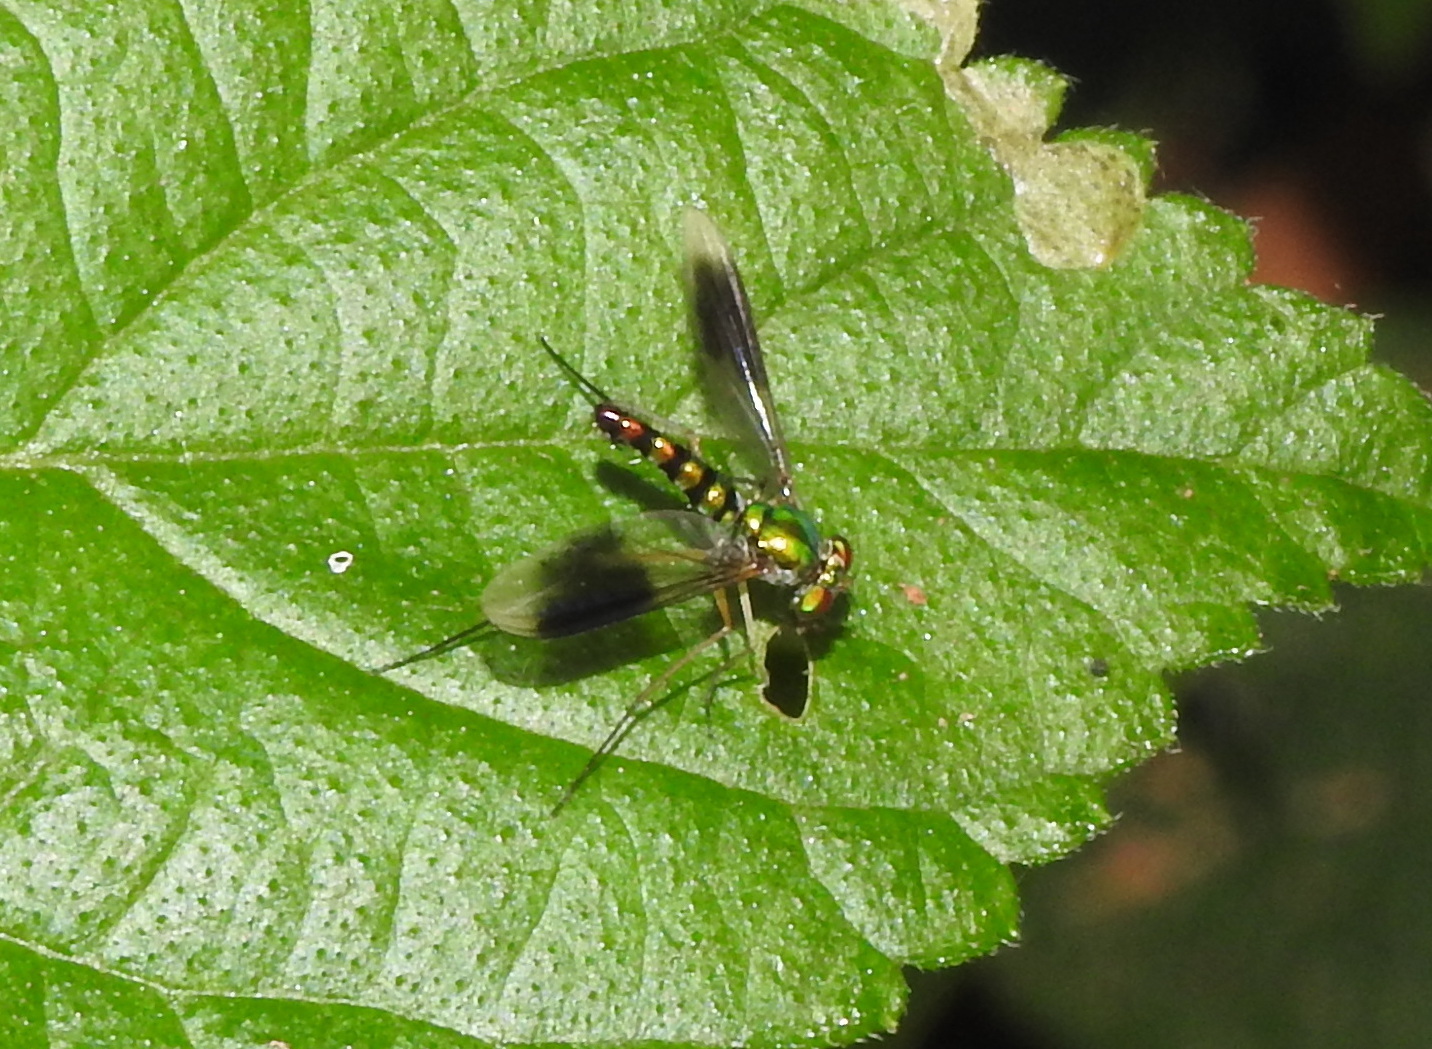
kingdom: Animalia
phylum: Arthropoda
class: Insecta
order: Diptera
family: Dolichopodidae
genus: Heteropsilopus
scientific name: Heteropsilopus vanus
